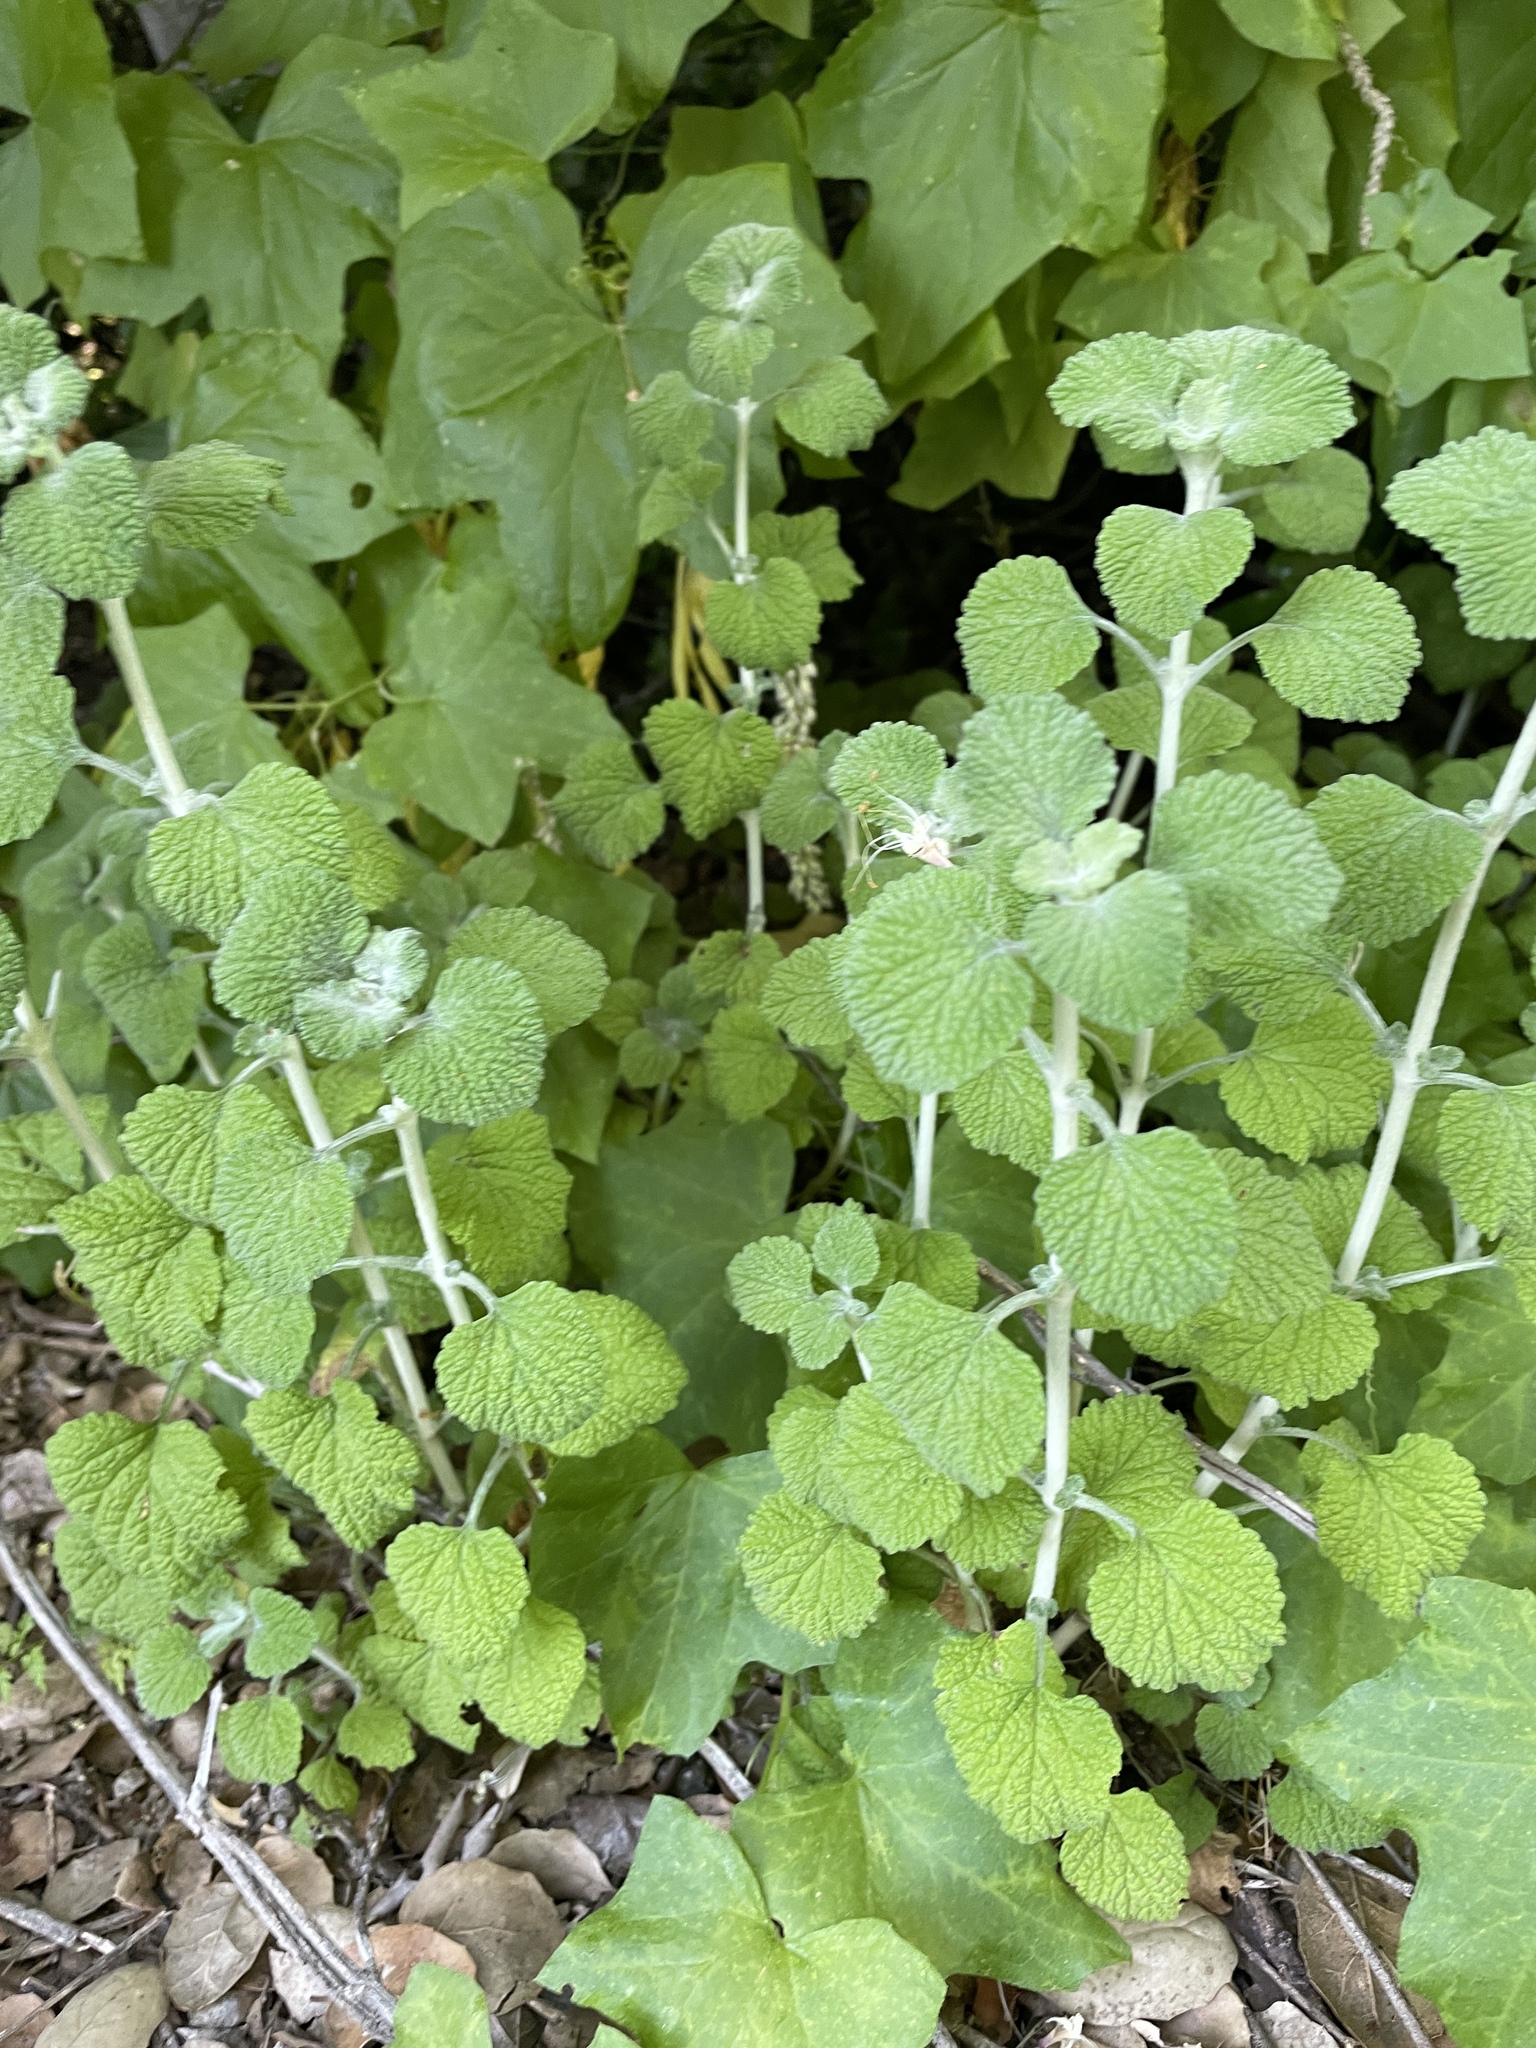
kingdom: Plantae
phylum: Tracheophyta
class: Magnoliopsida
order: Lamiales
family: Lamiaceae
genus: Marrubium
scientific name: Marrubium vulgare
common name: Horehound
